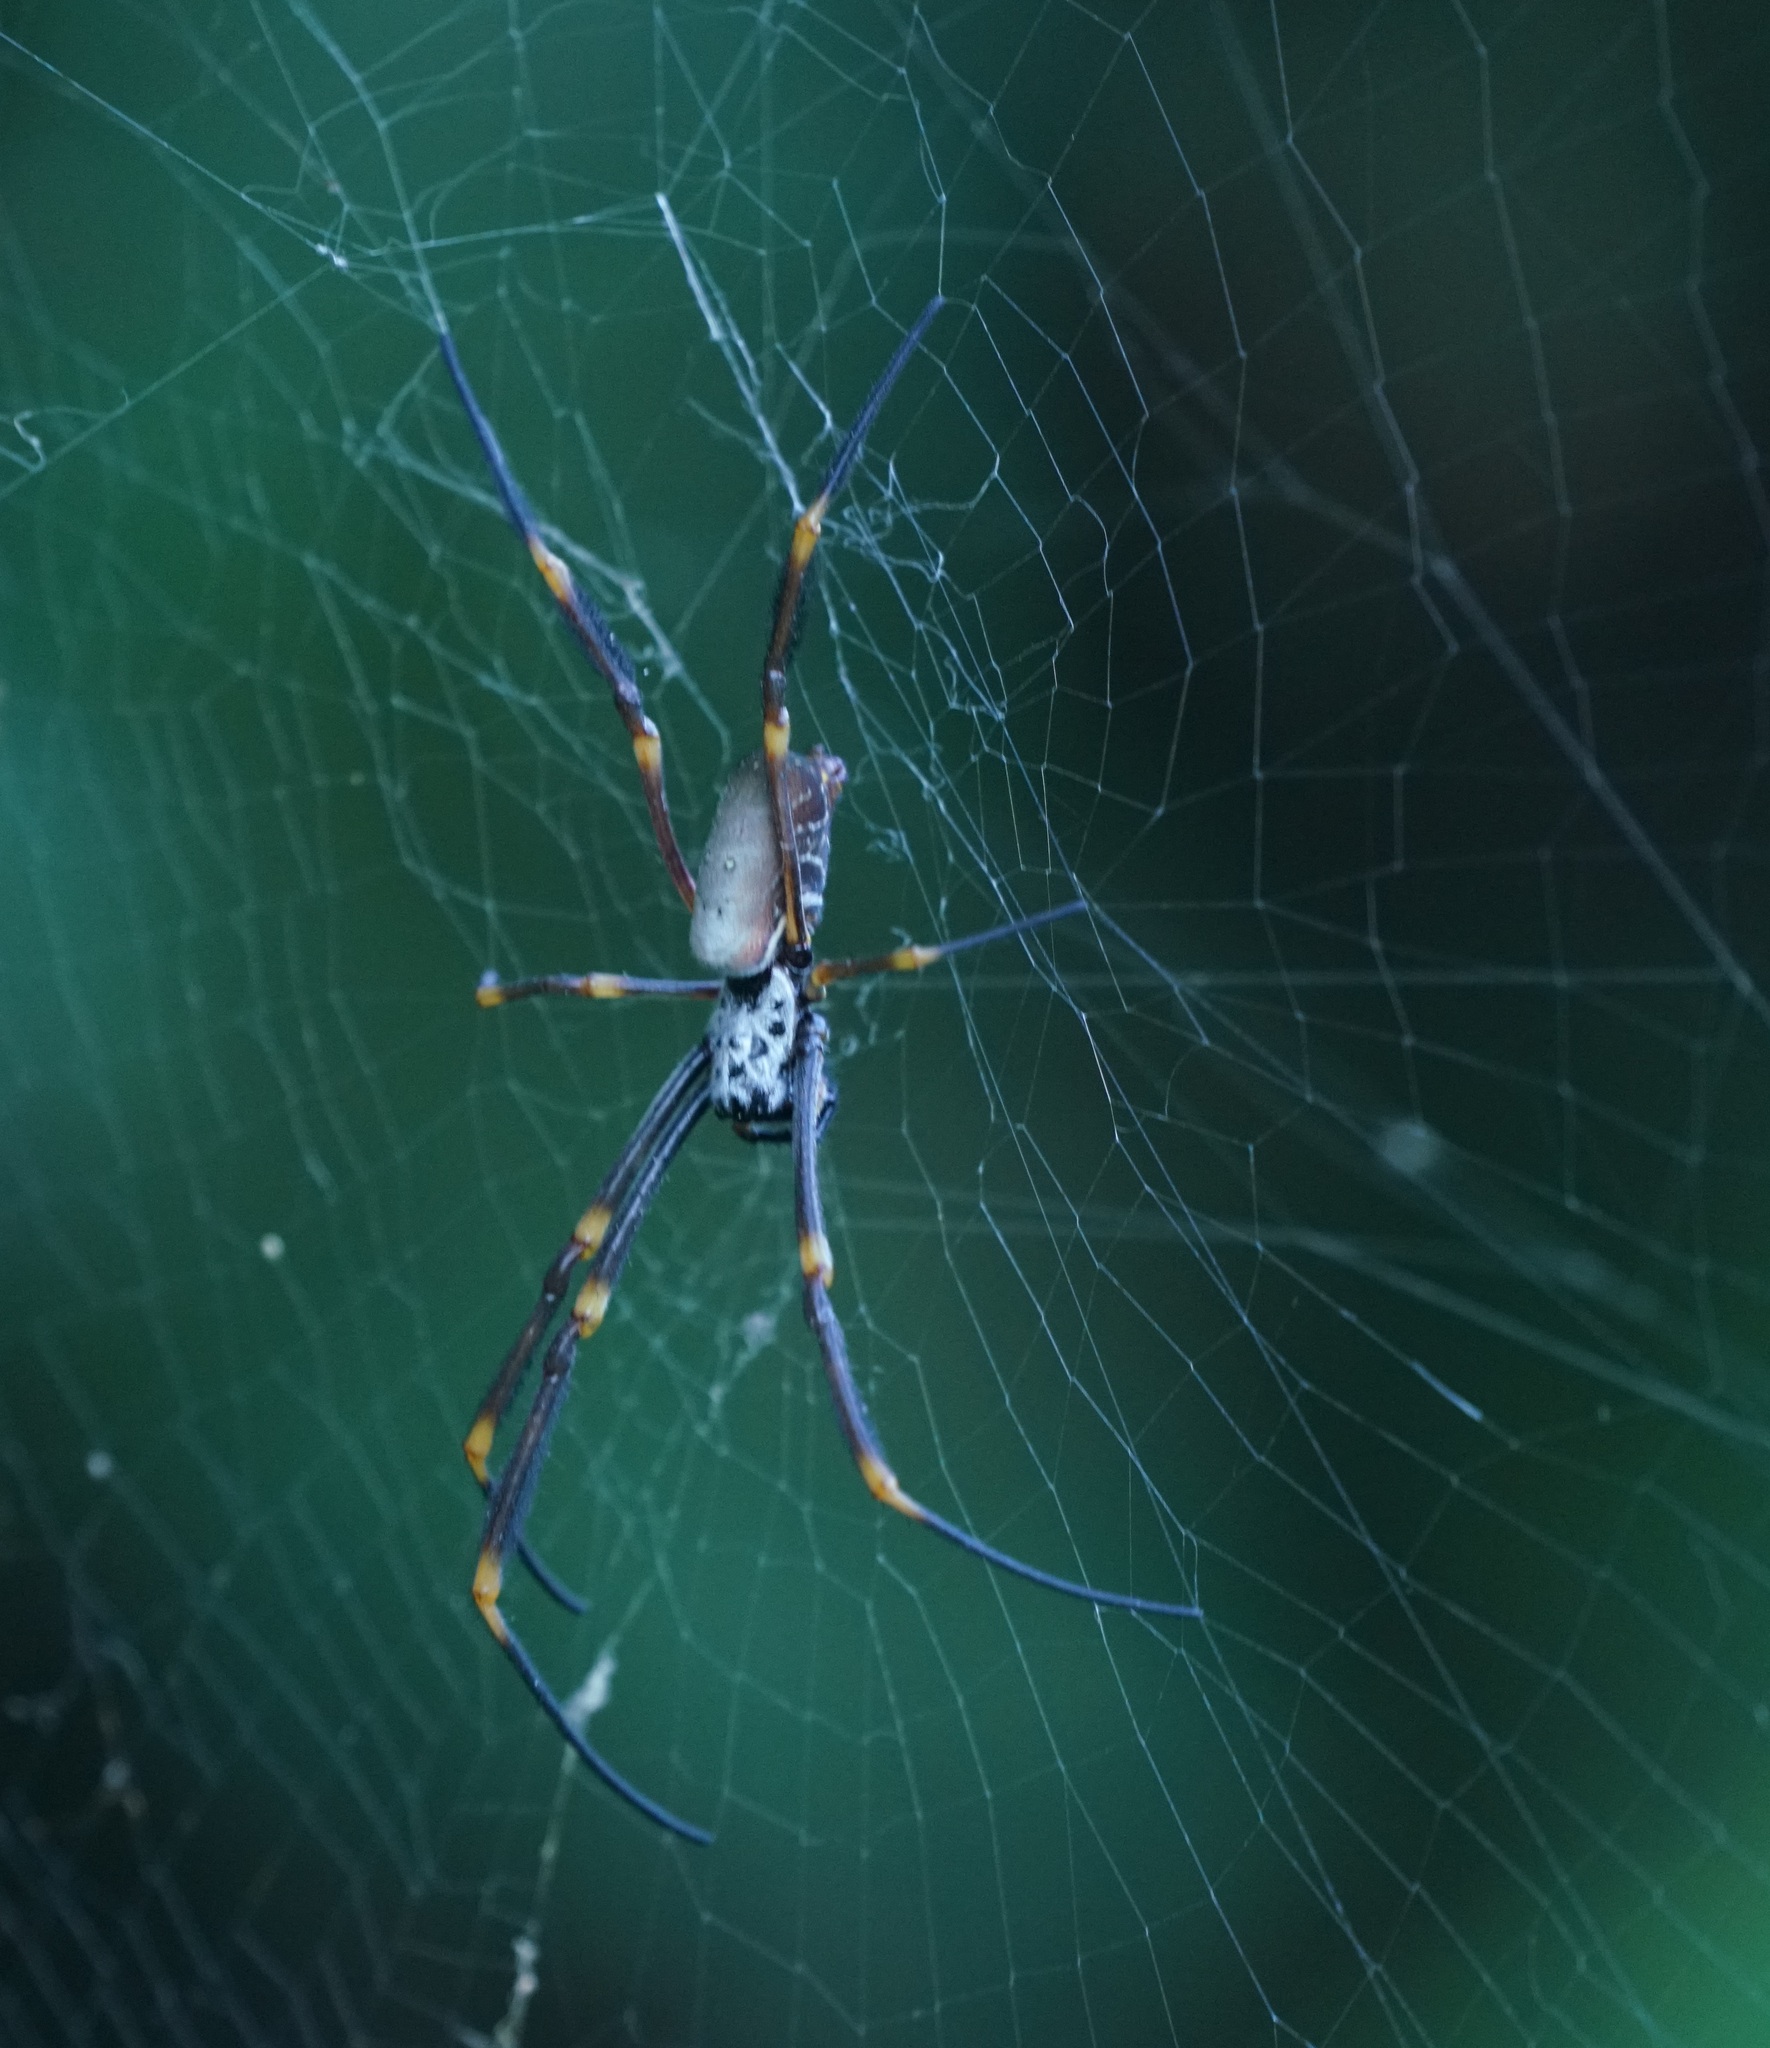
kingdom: Animalia
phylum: Arthropoda
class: Arachnida
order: Araneae
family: Araneidae
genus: Trichonephila
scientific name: Trichonephila plumipes
